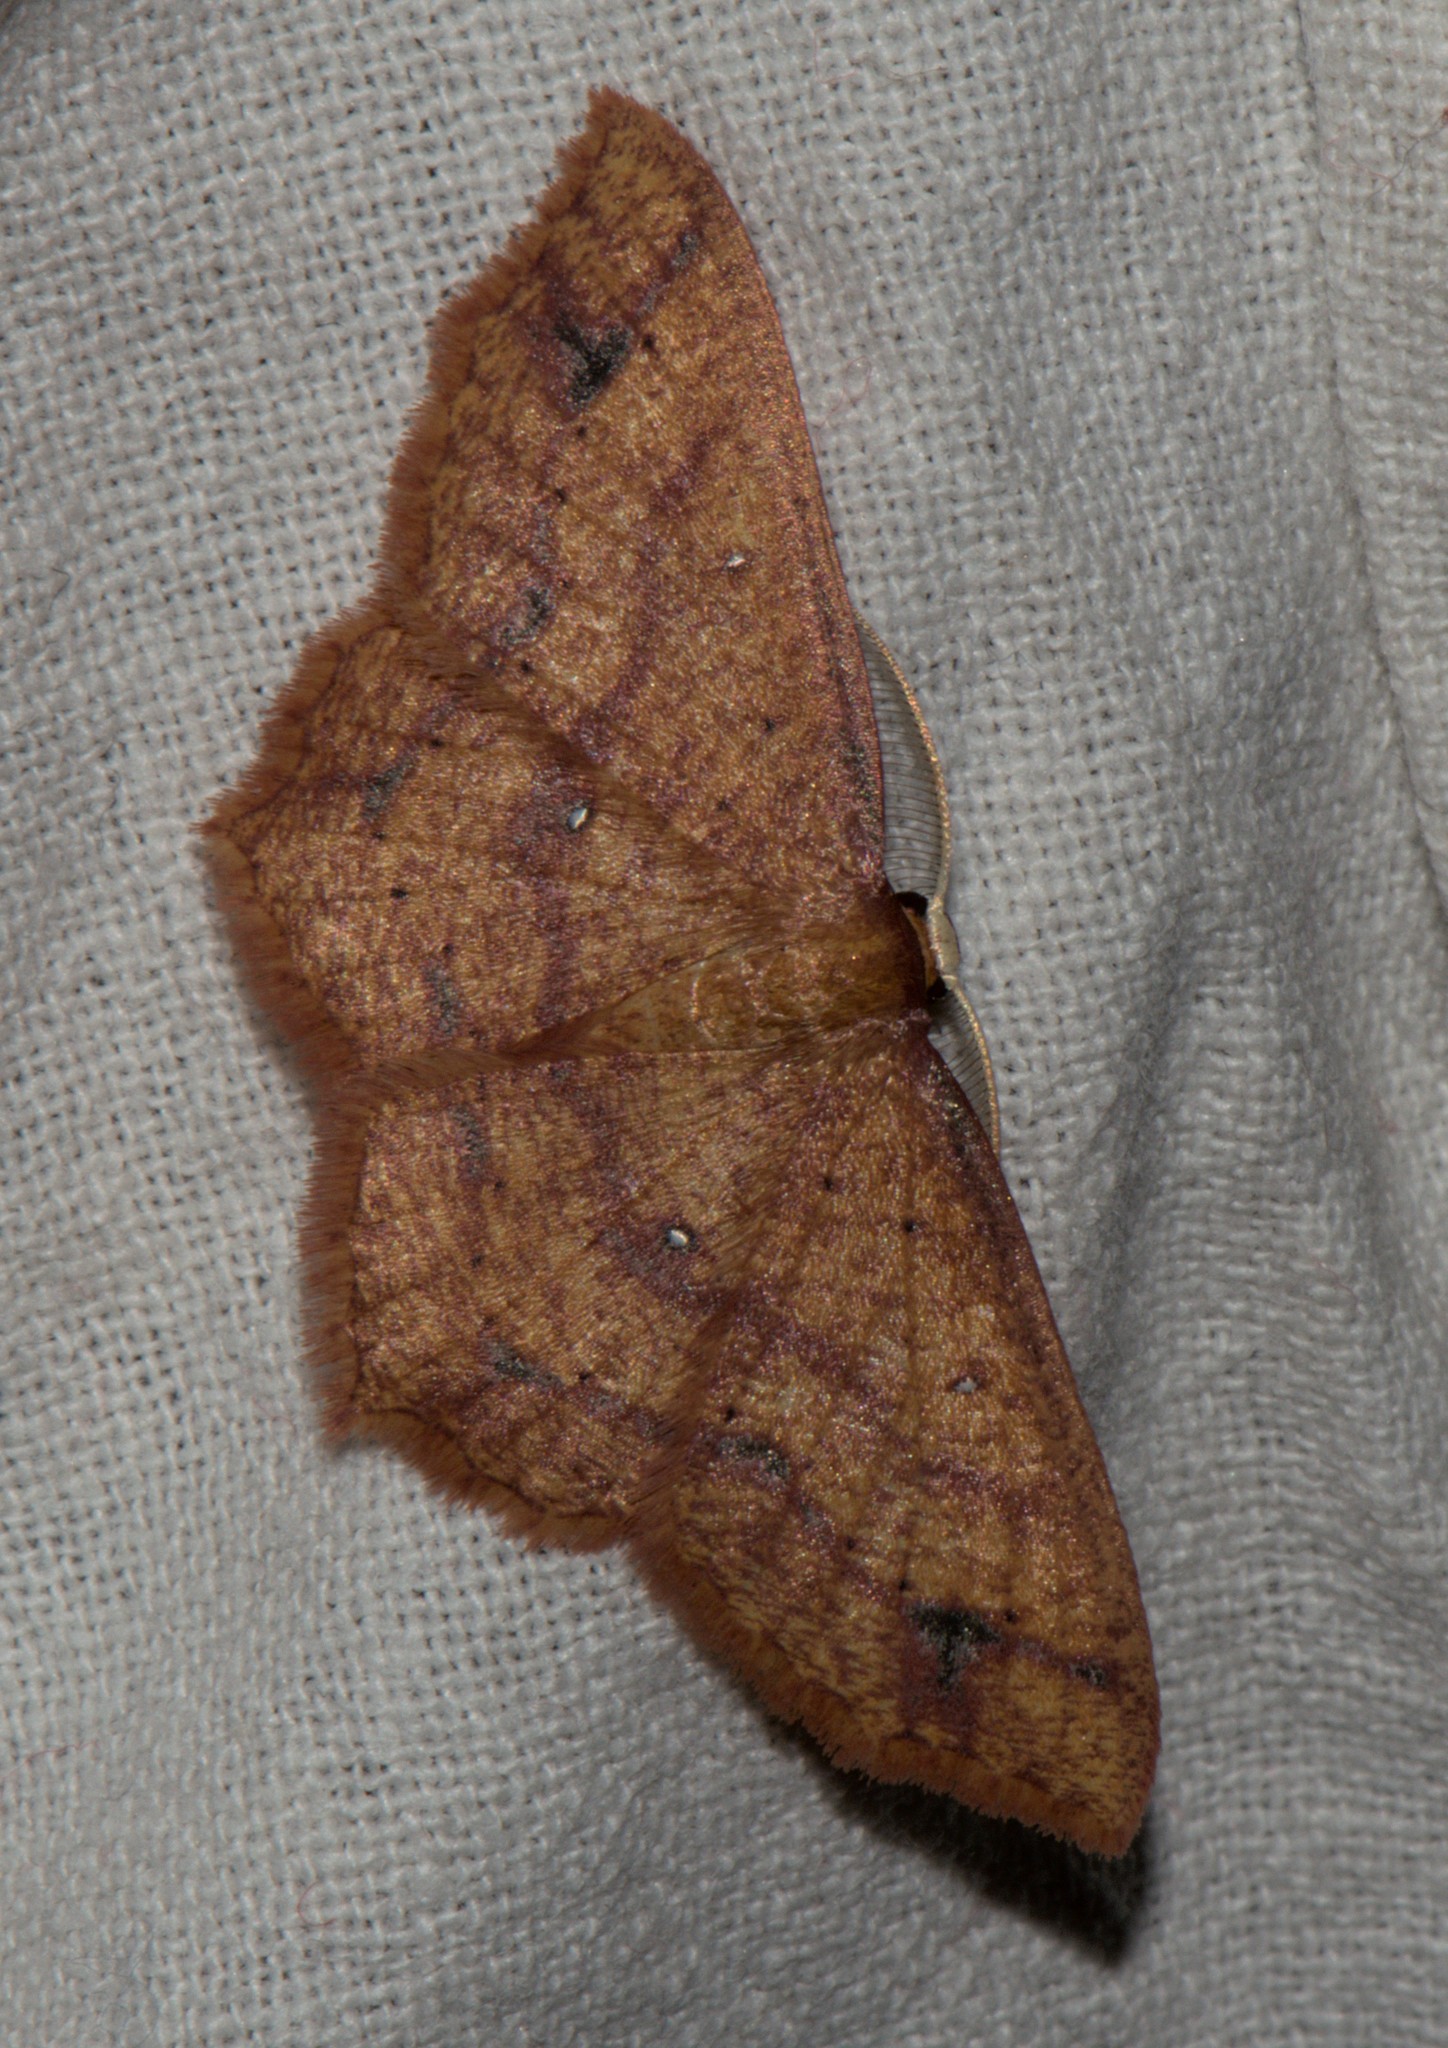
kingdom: Animalia
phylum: Arthropoda
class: Insecta
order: Lepidoptera
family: Geometridae
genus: Synegiodes
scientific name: Synegiodes hyriaria
